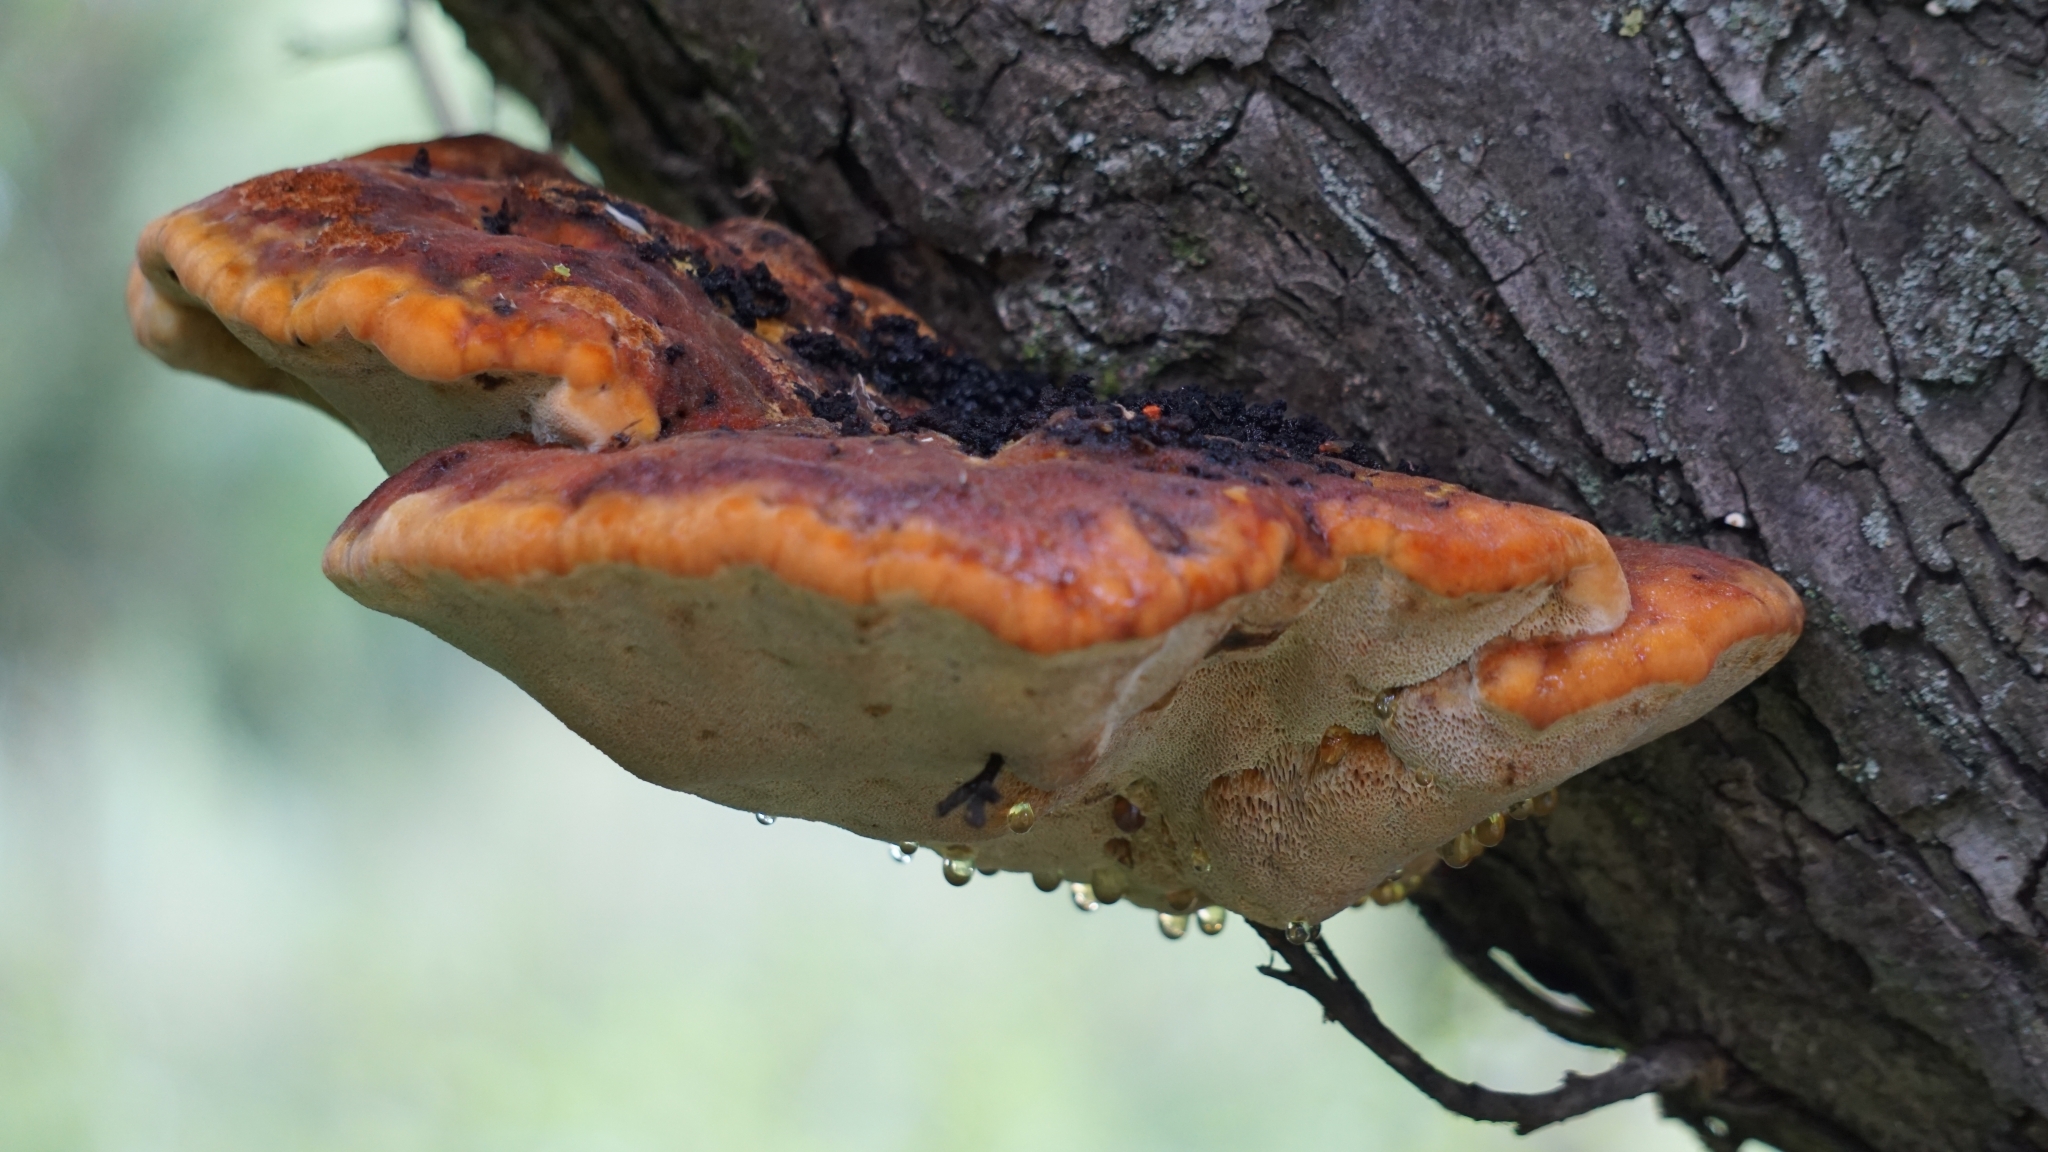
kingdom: Fungi
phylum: Basidiomycota
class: Agaricomycetes
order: Hymenochaetales
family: Hymenochaetaceae
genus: Inonotus
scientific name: Inonotus hispidus
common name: Shaggy bracket
